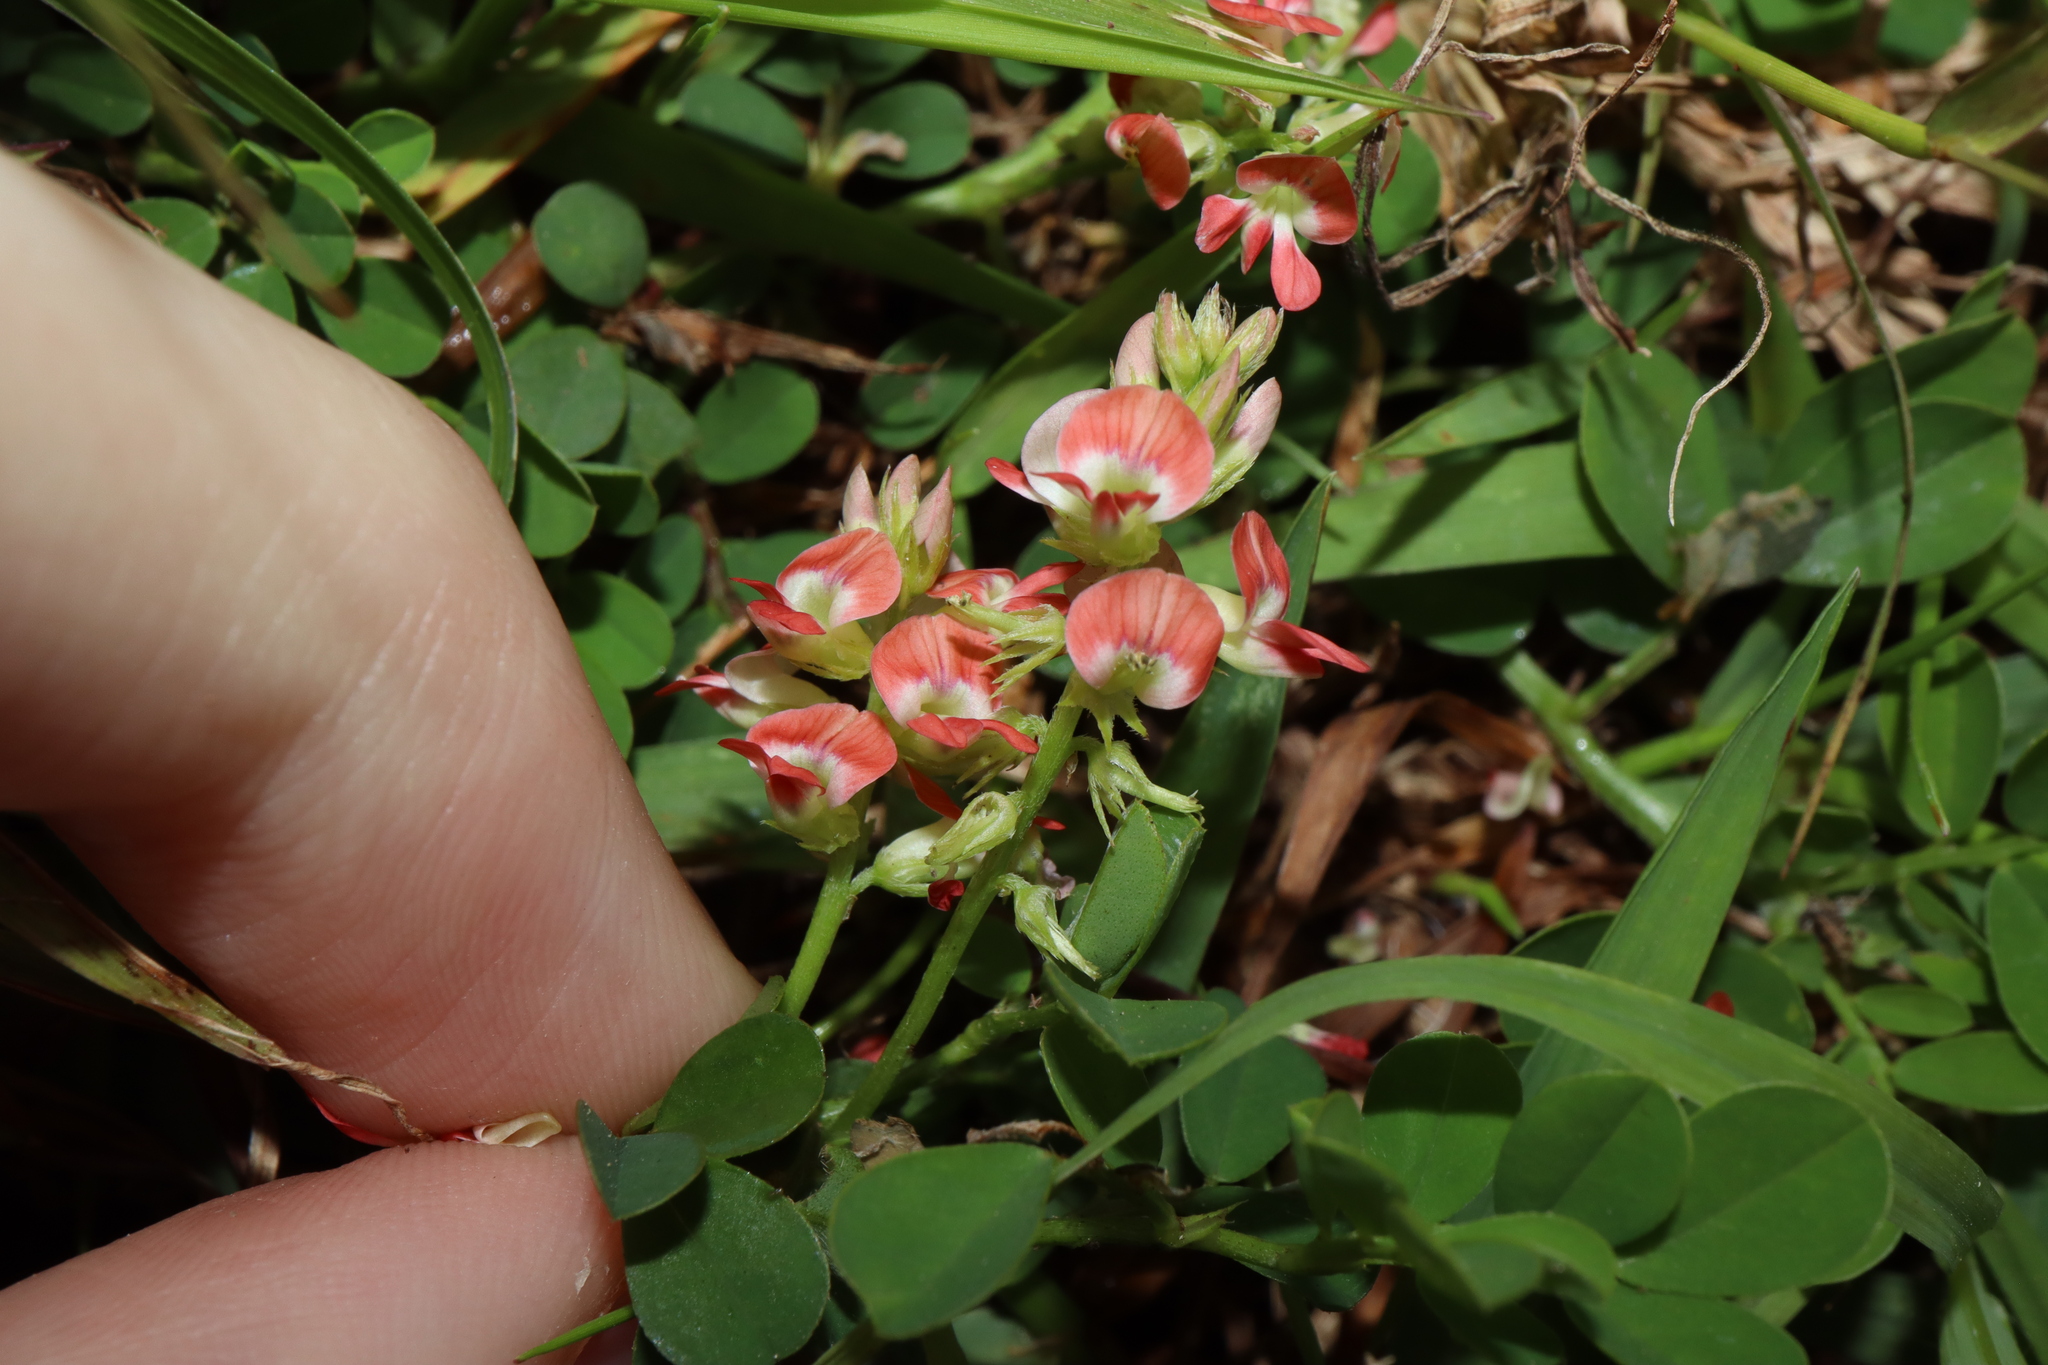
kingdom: Plantae
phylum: Tracheophyta
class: Magnoliopsida
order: Fabales
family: Fabaceae
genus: Indigofera
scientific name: Indigofera spicata
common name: Creeping indigo
